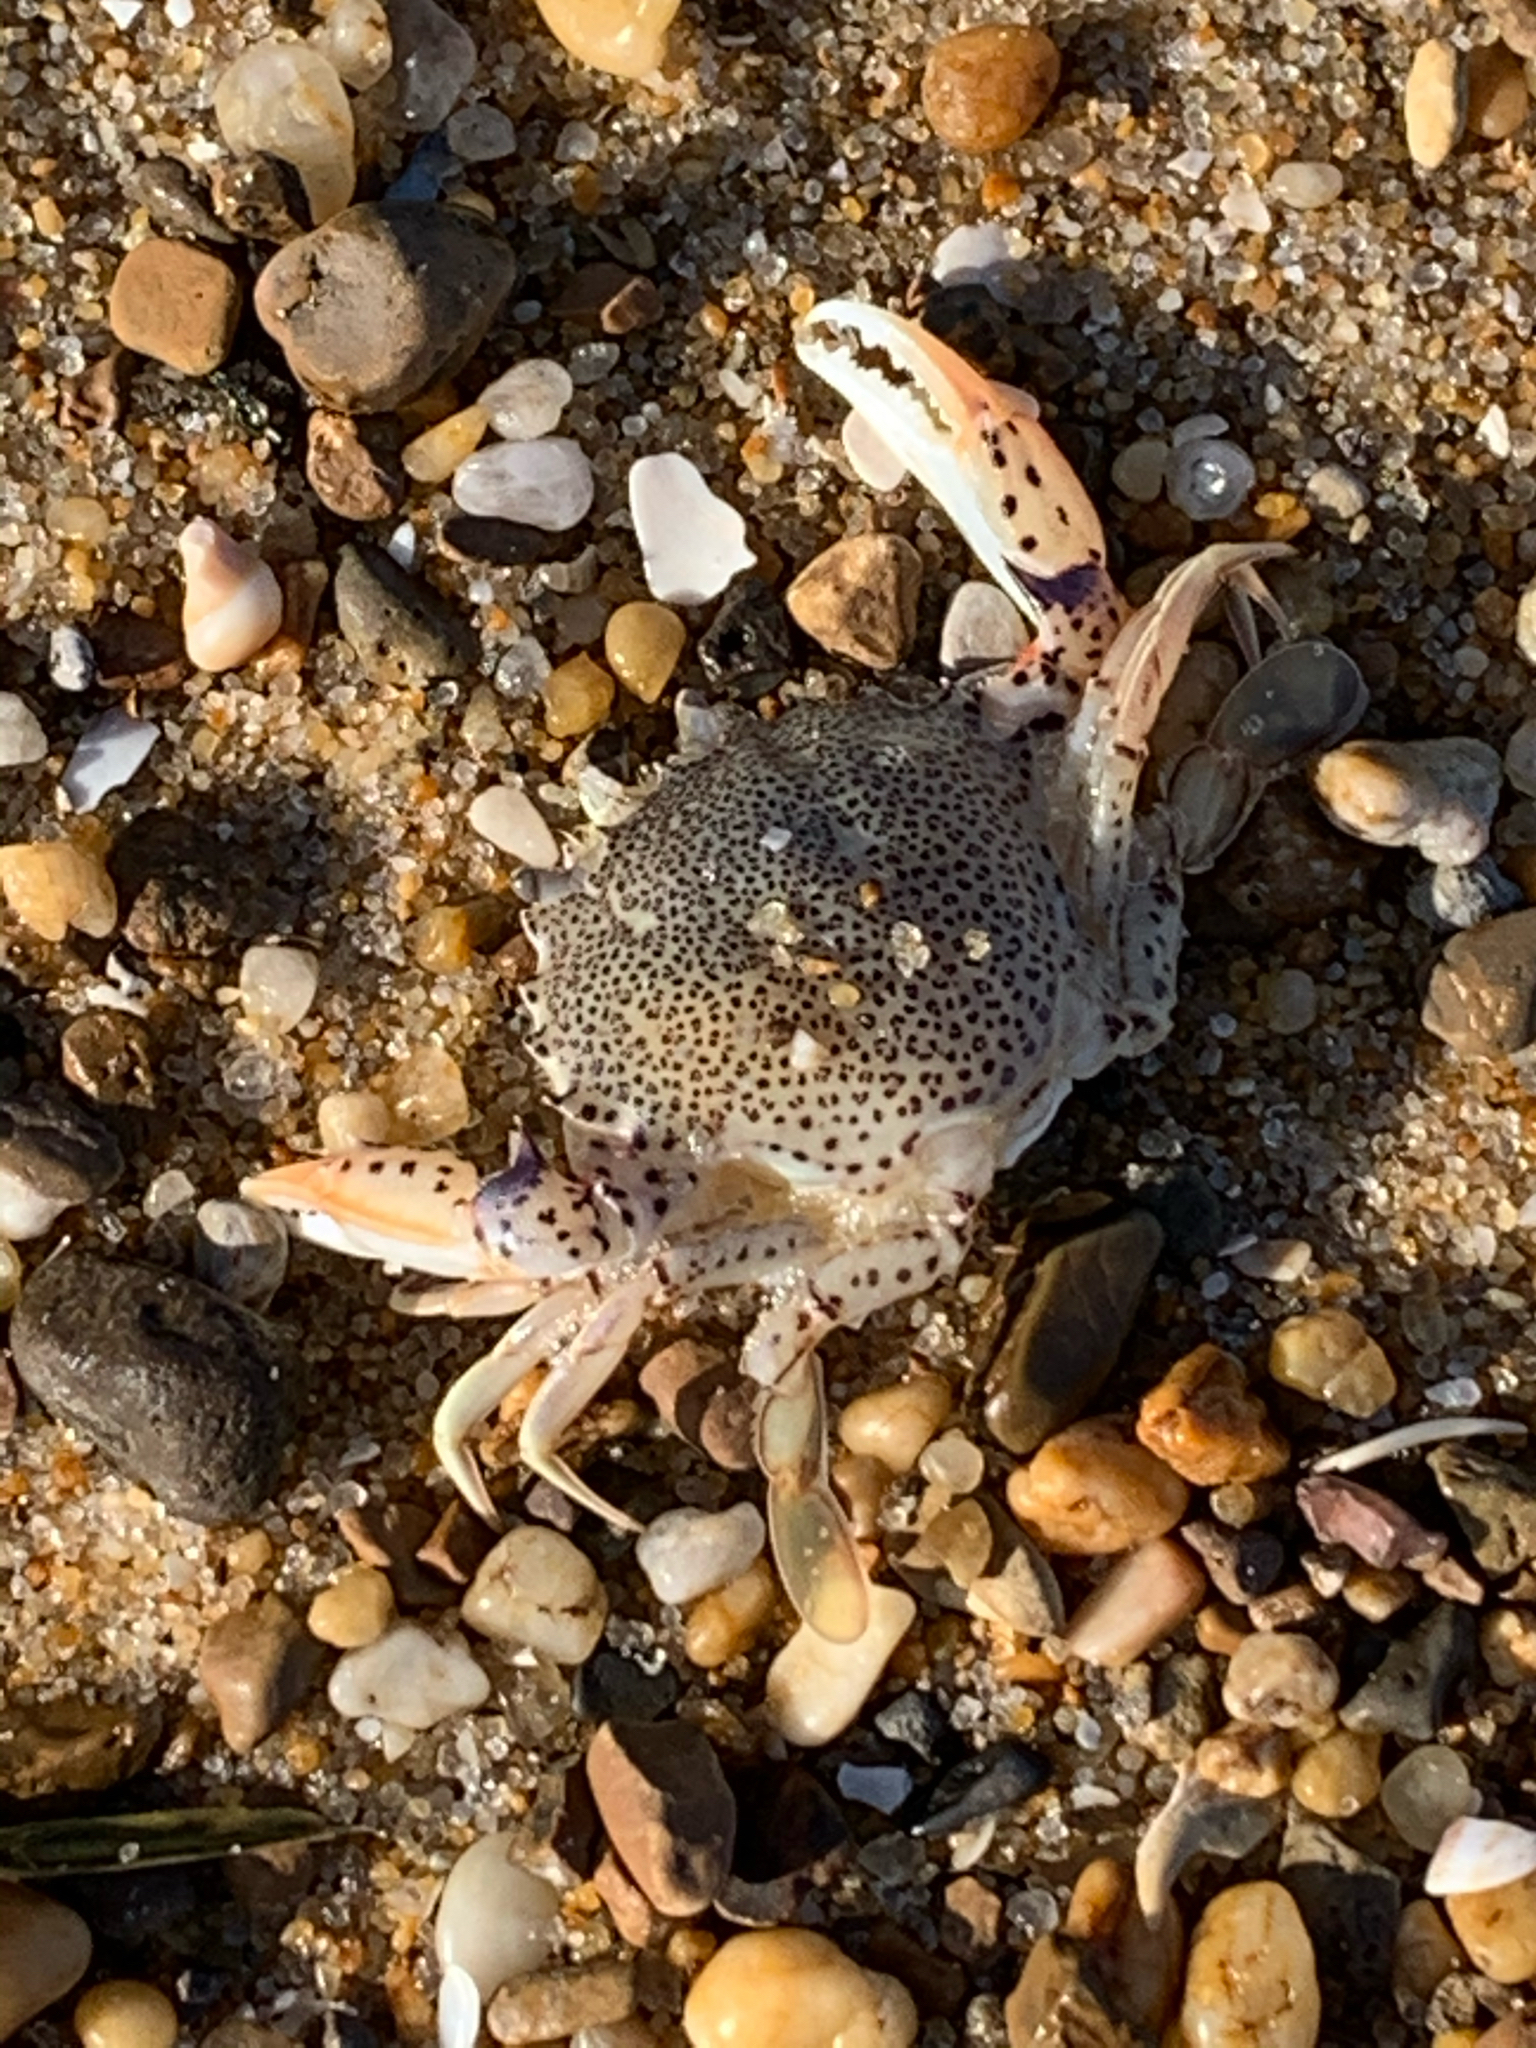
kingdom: Animalia
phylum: Arthropoda
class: Malacostraca
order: Decapoda
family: Ovalipidae
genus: Ovalipes
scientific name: Ovalipes ocellatus
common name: Lady crab
